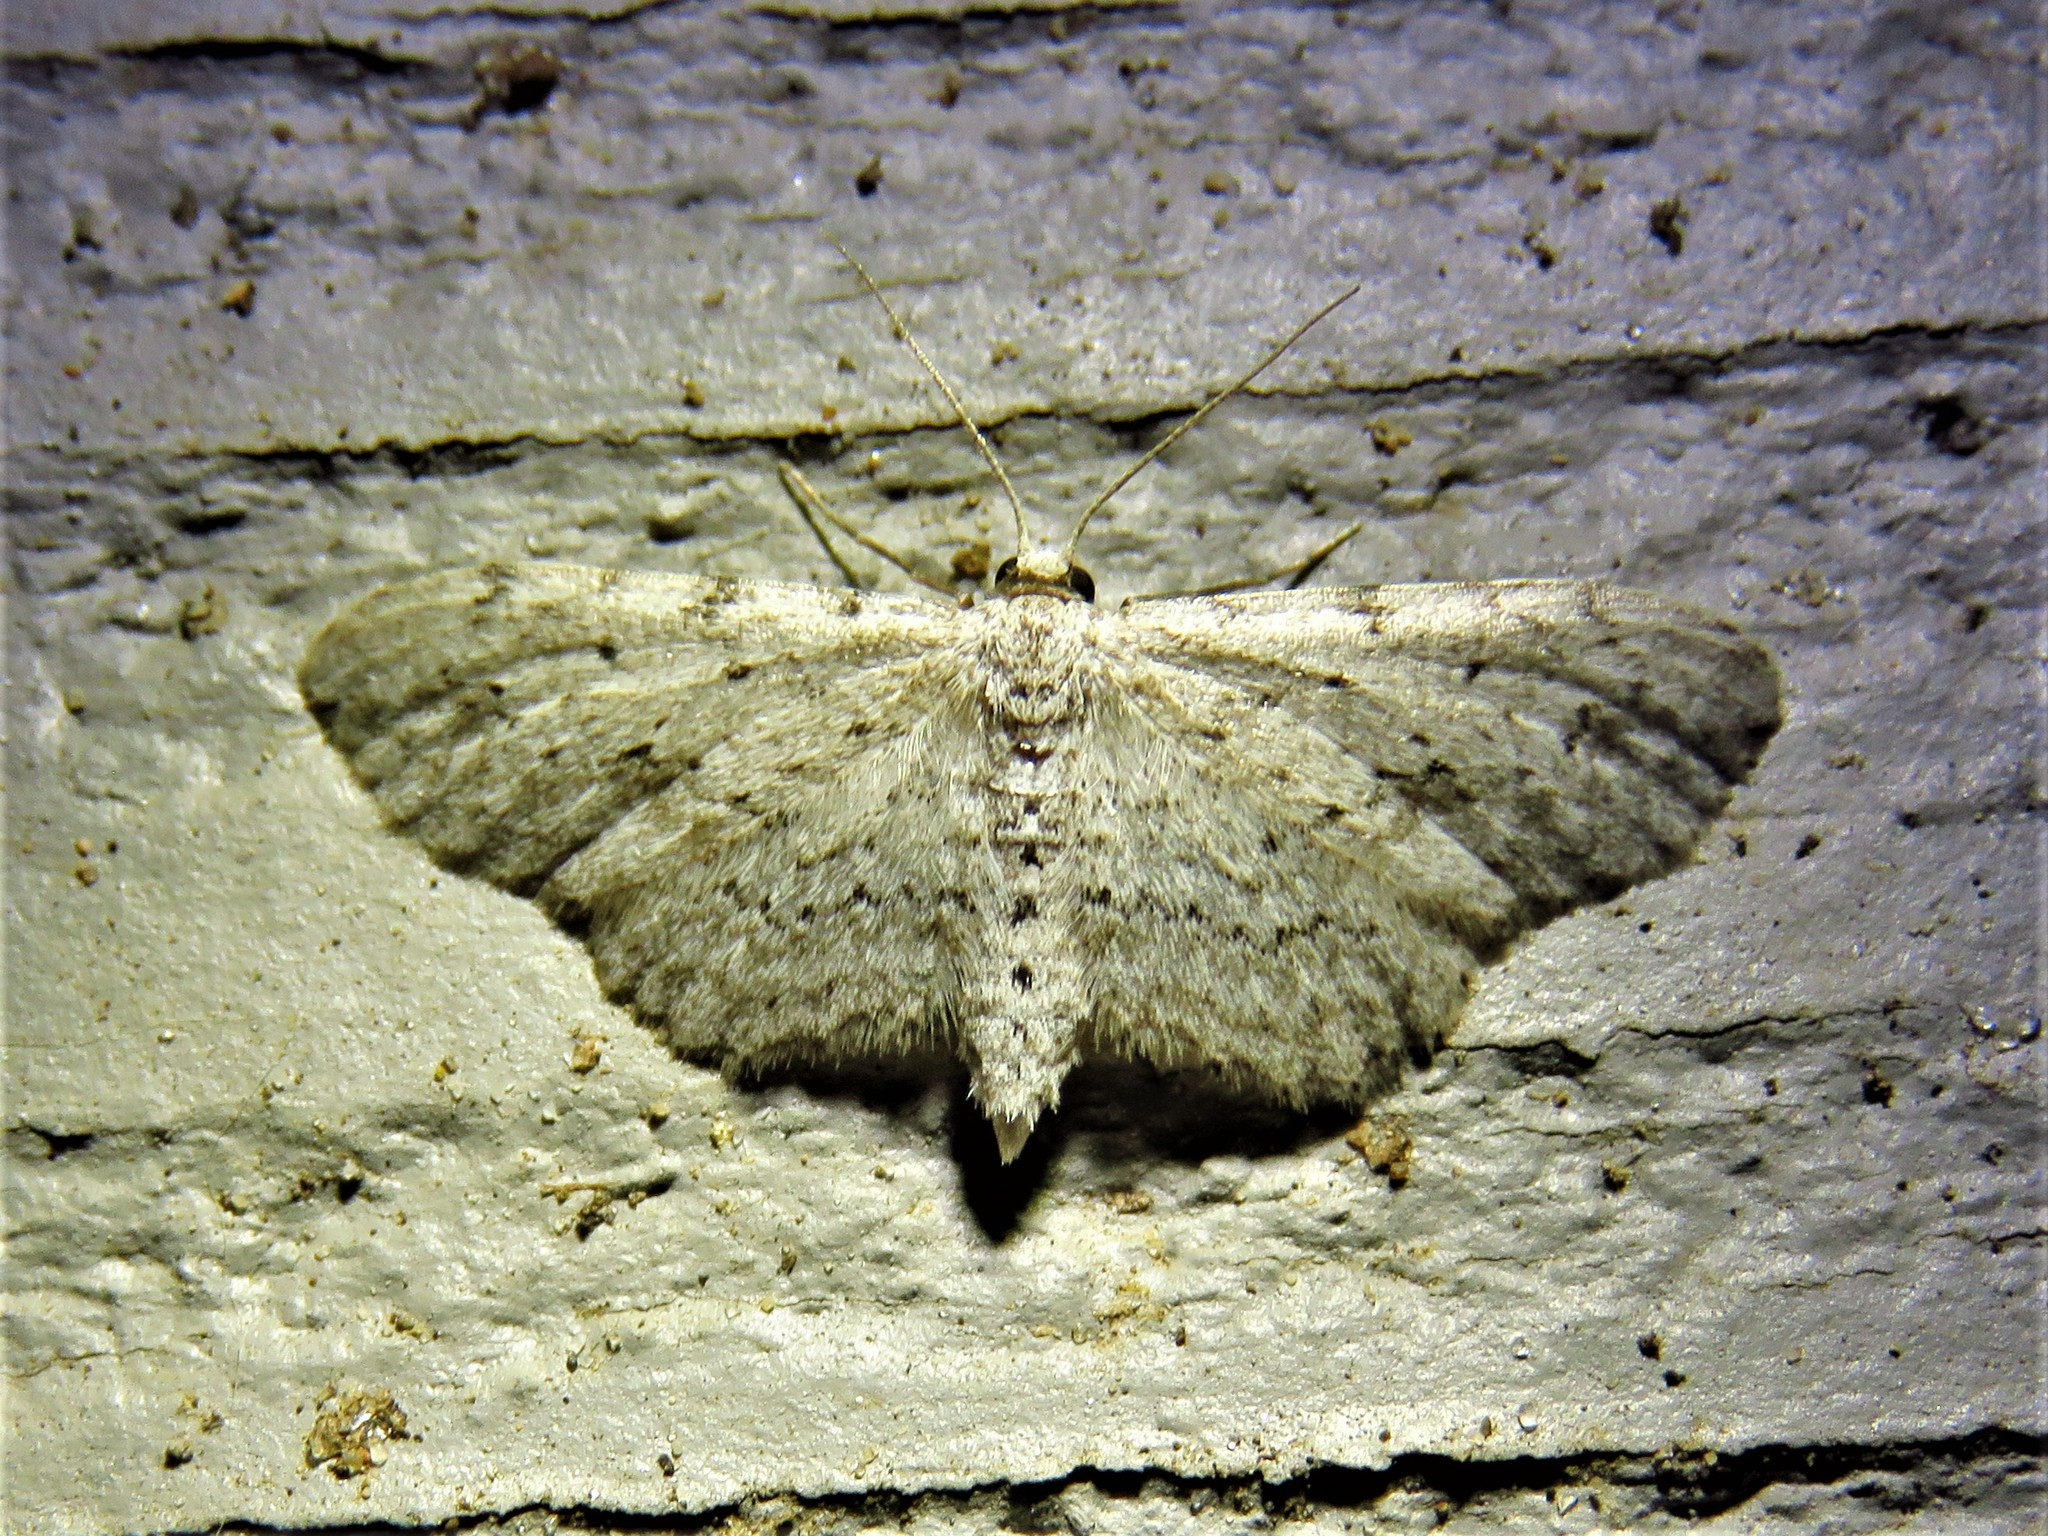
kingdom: Animalia
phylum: Arthropoda
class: Insecta
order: Lepidoptera
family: Geometridae
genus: Pimaphera
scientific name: Pimaphera sparsaria
